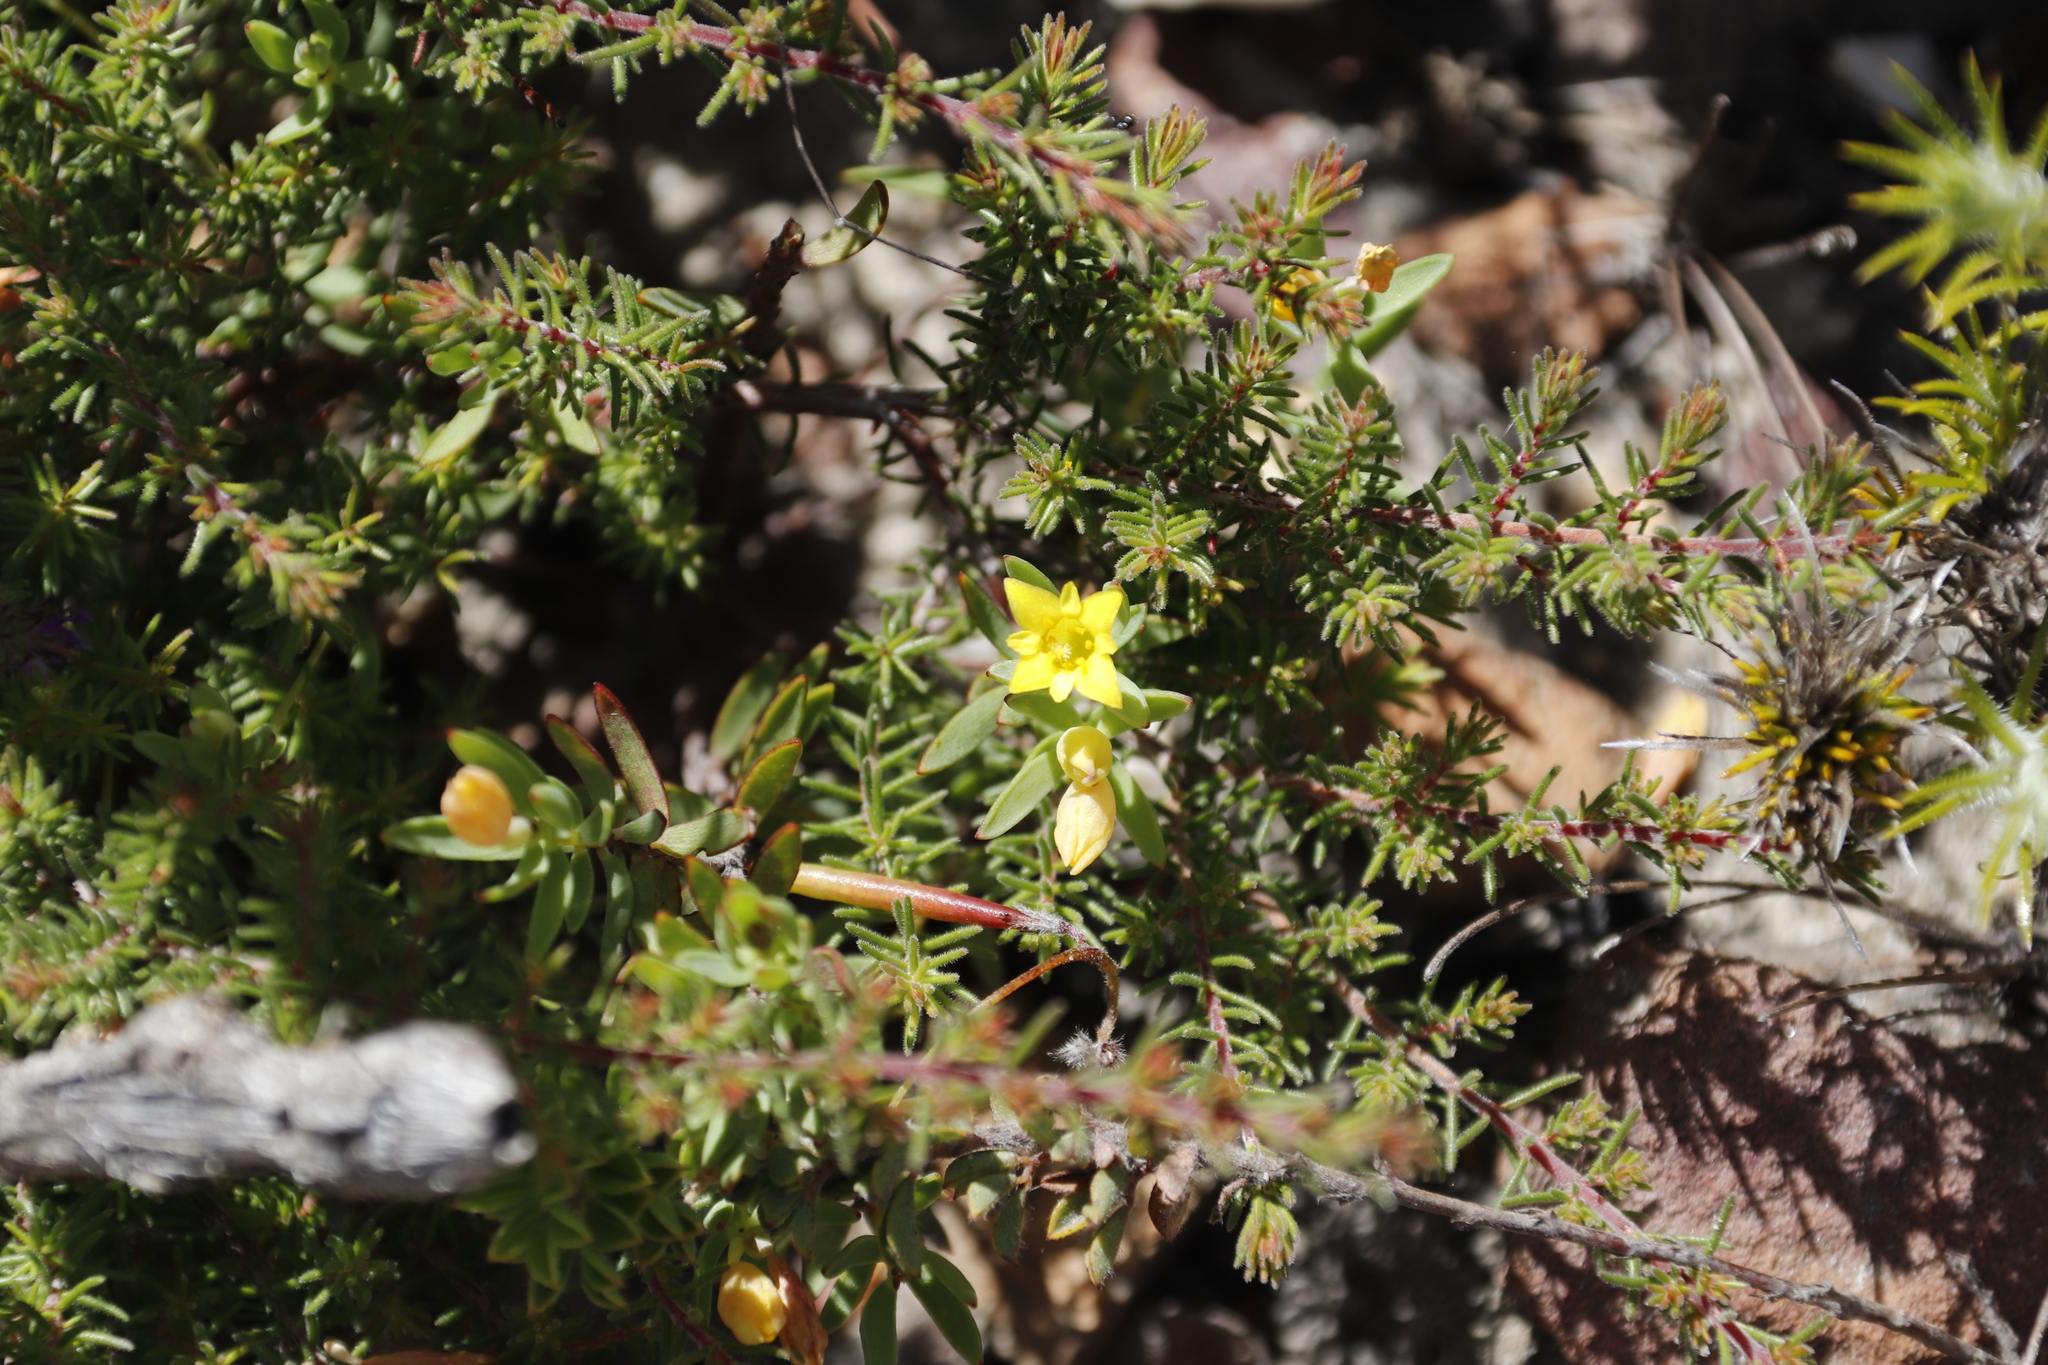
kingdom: Plantae
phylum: Tracheophyta
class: Magnoliopsida
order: Malvales
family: Thymelaeaceae
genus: Gnidia
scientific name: Gnidia juniperifolia
